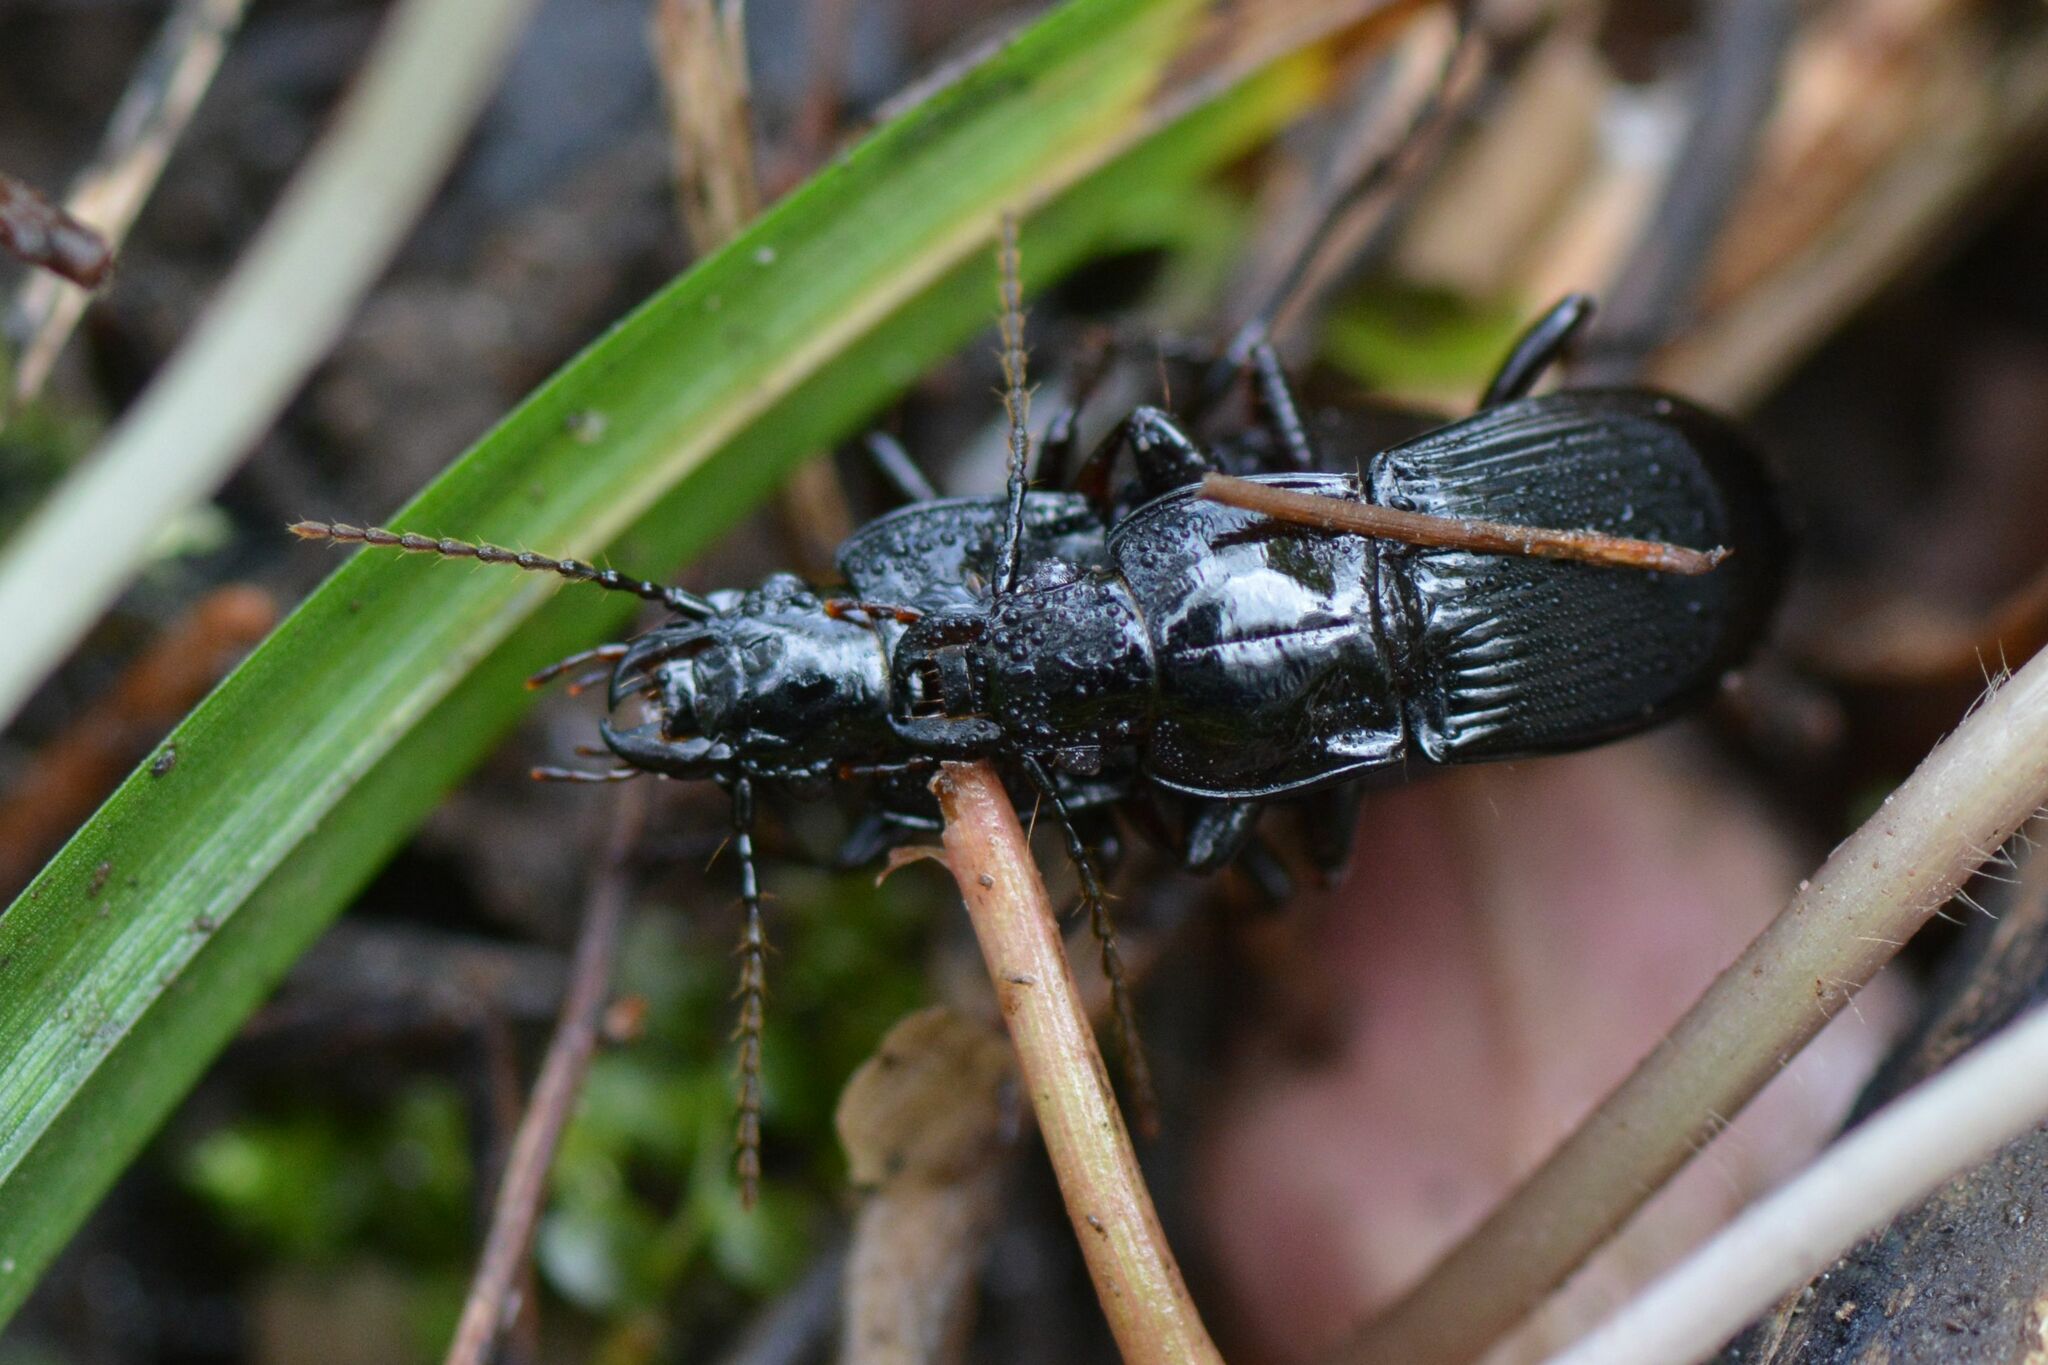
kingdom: Animalia
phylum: Arthropoda
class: Insecta
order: Coleoptera
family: Carabidae
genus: Abax
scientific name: Abax parallelepipedus
